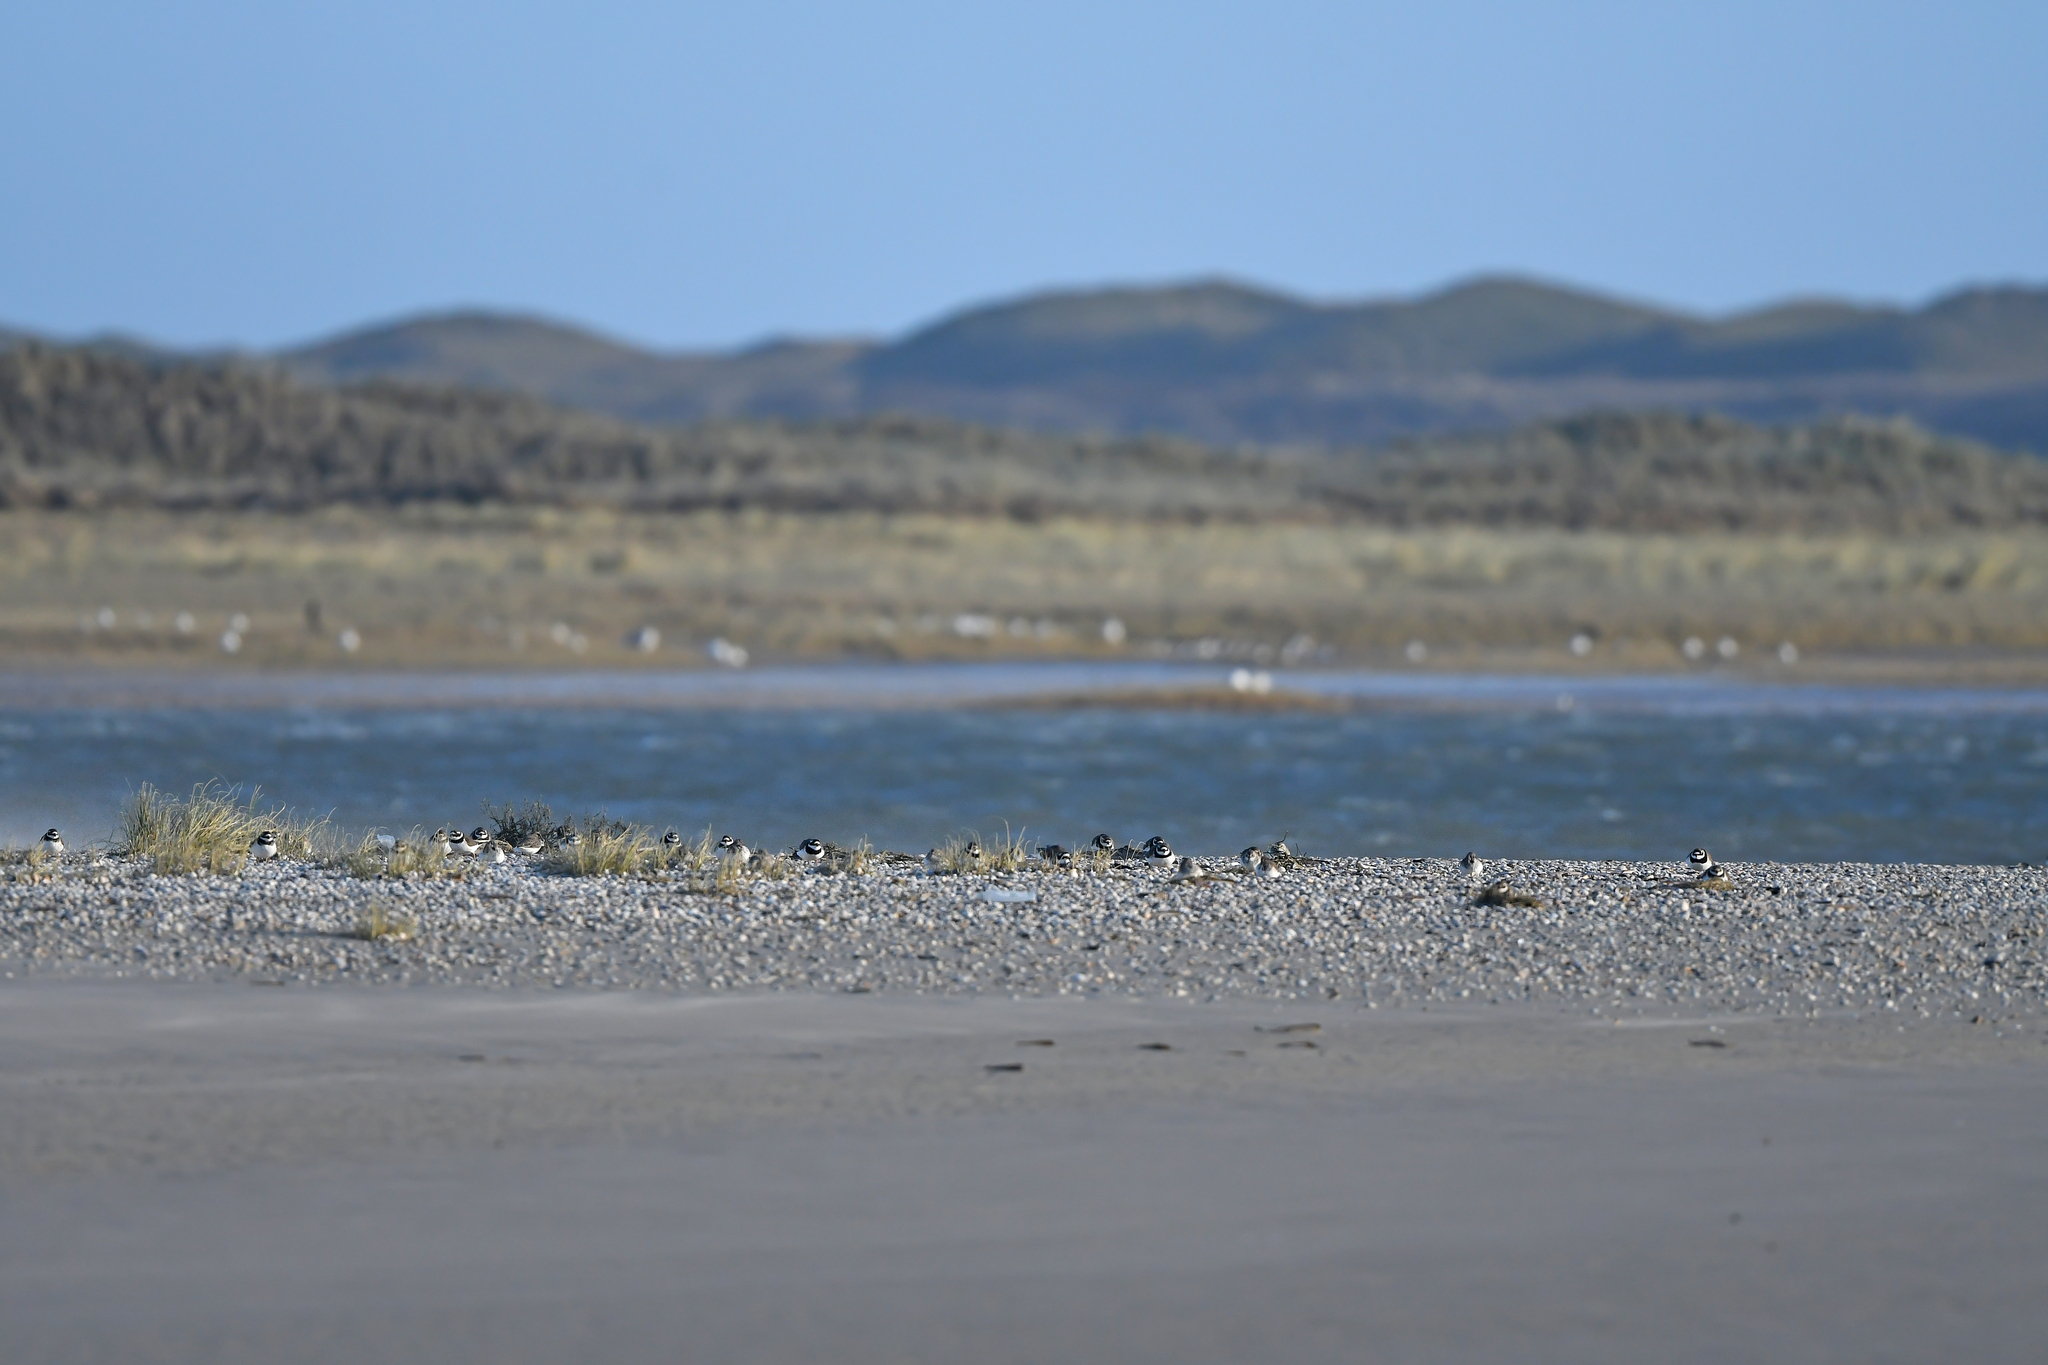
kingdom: Animalia
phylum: Chordata
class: Aves
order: Charadriiformes
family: Charadriidae
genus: Charadrius
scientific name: Charadrius hiaticula
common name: Common ringed plover
